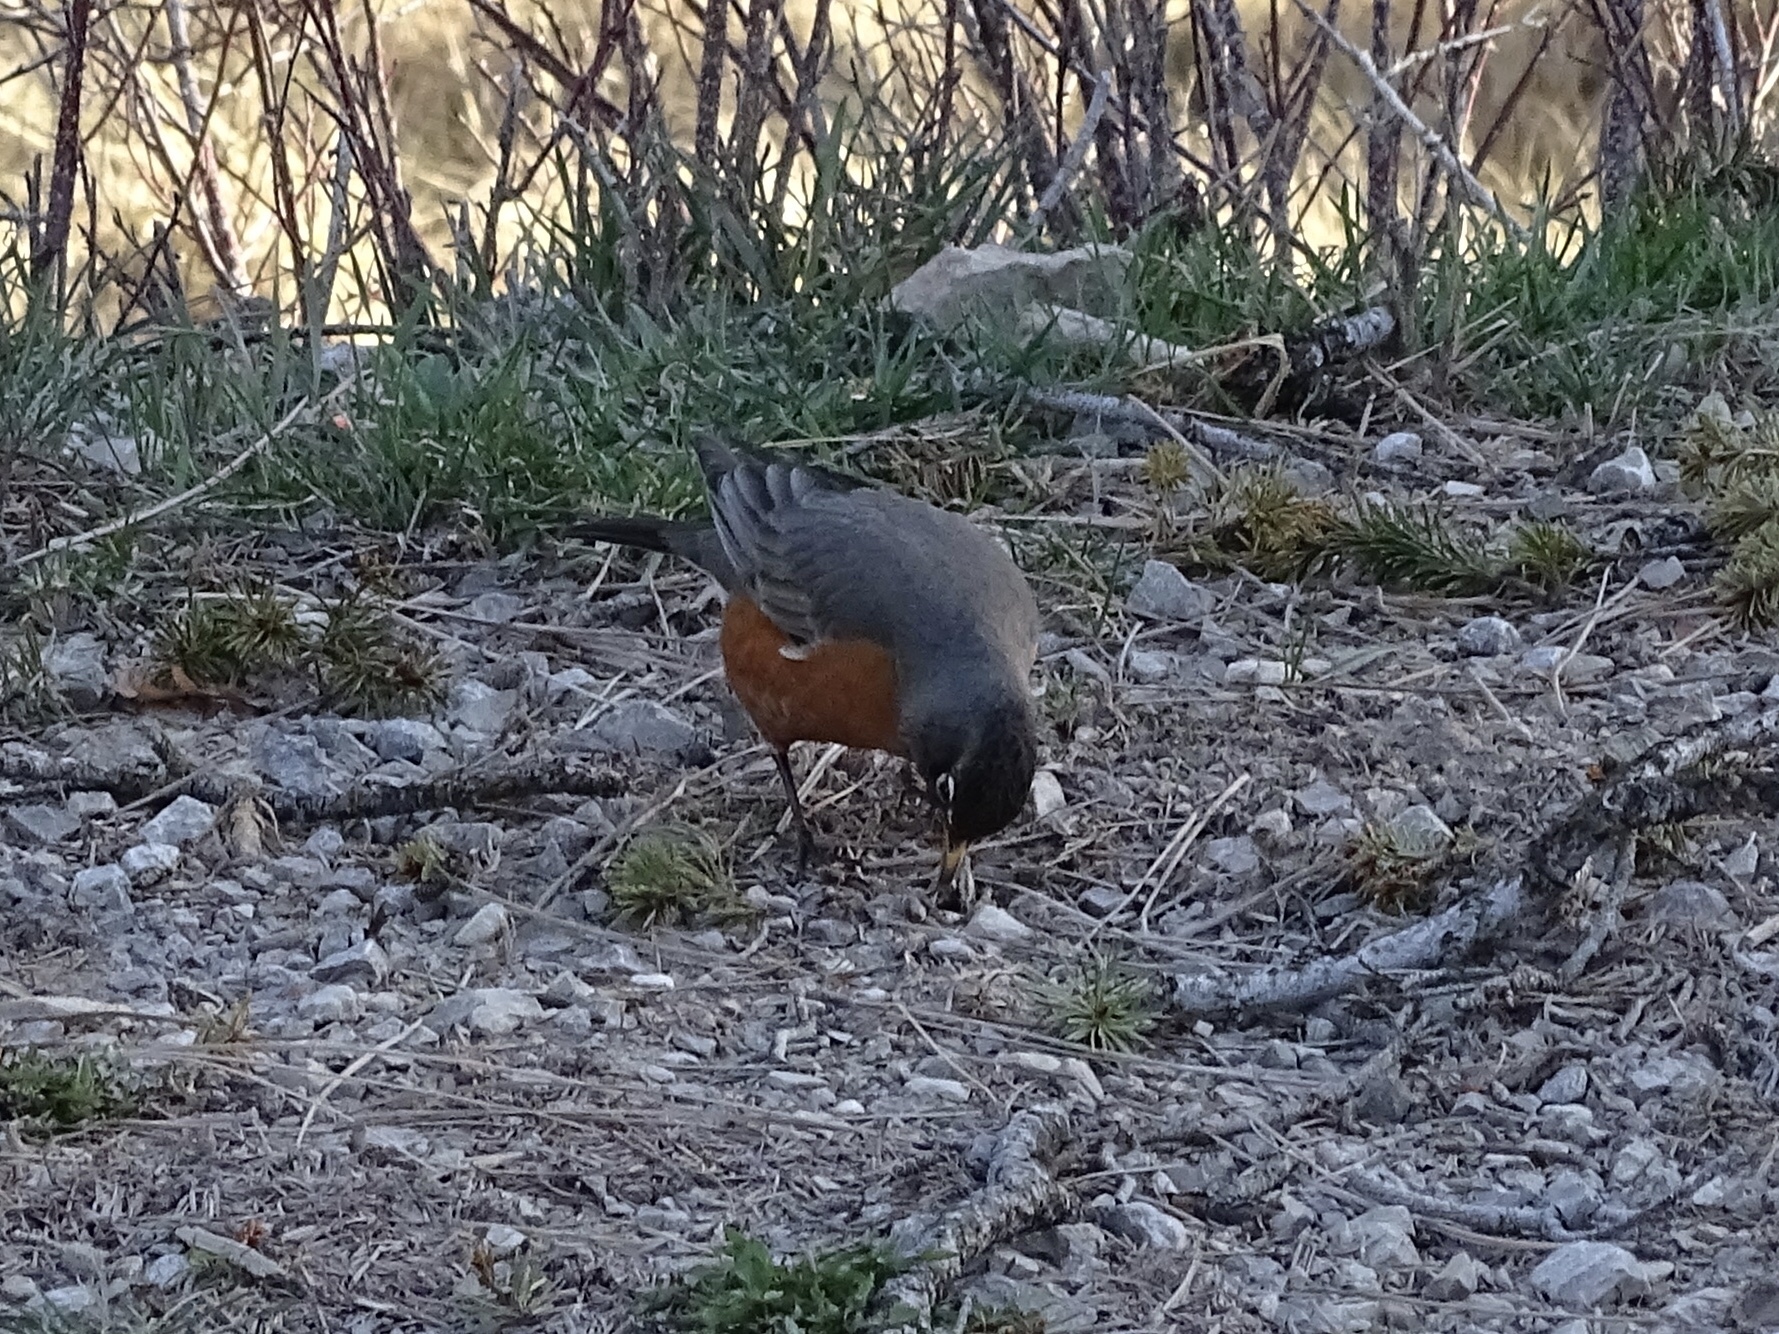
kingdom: Animalia
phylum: Chordata
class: Aves
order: Passeriformes
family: Turdidae
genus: Turdus
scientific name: Turdus migratorius
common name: American robin
